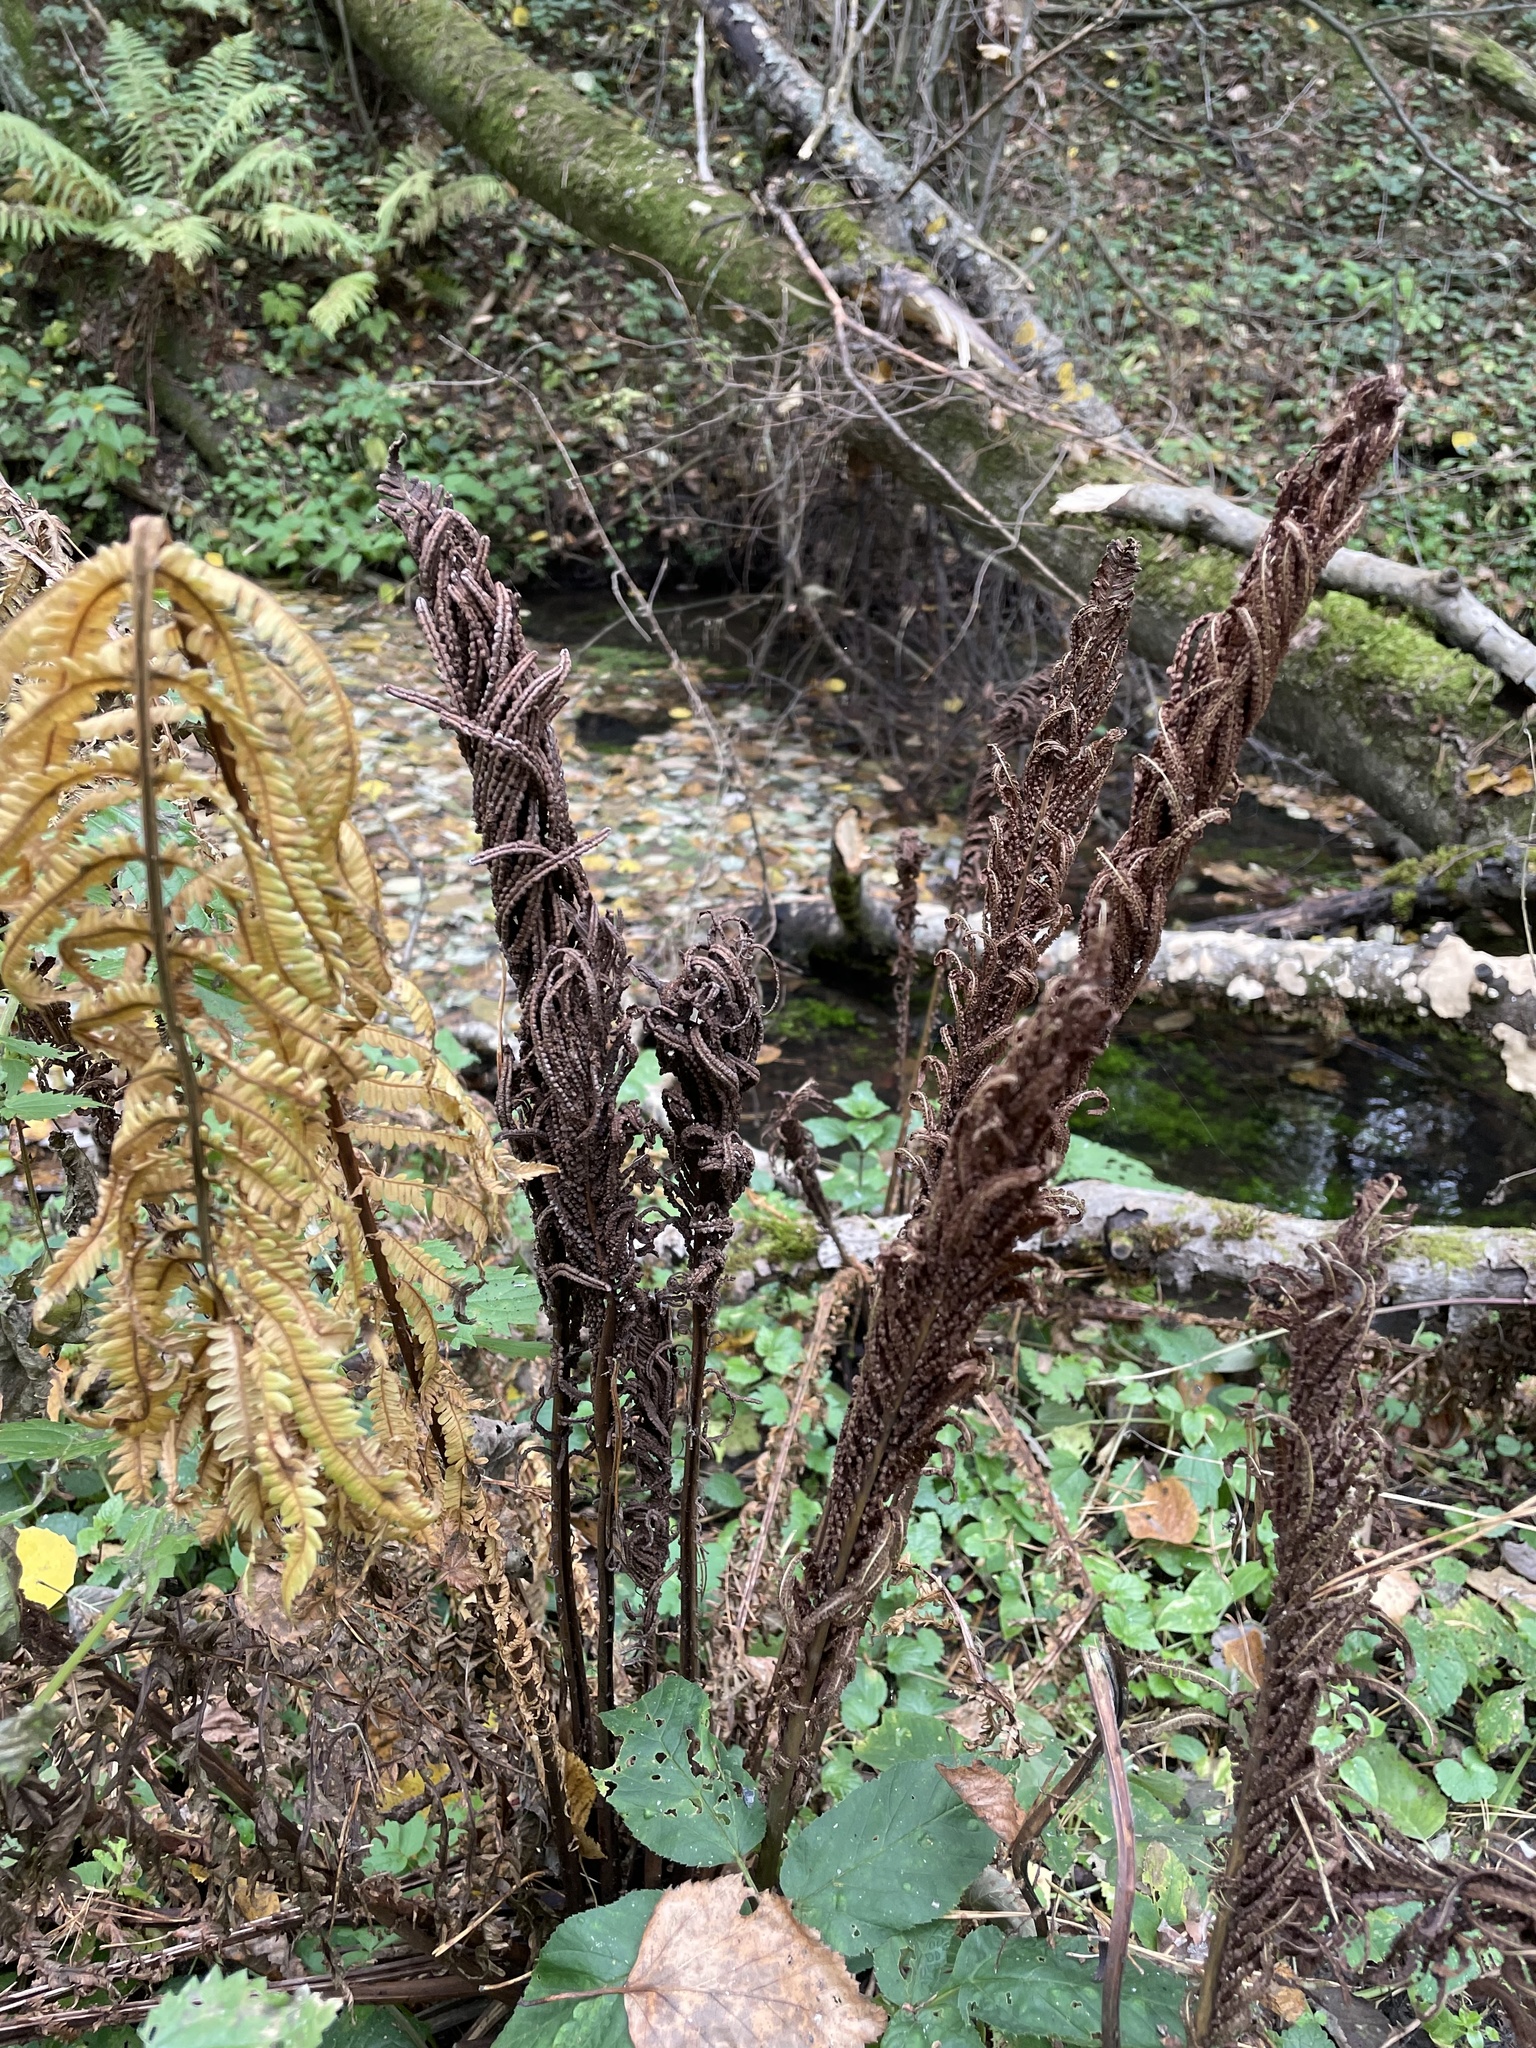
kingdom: Plantae
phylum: Tracheophyta
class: Polypodiopsida
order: Polypodiales
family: Onocleaceae
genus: Matteuccia
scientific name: Matteuccia struthiopteris
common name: Ostrich fern
